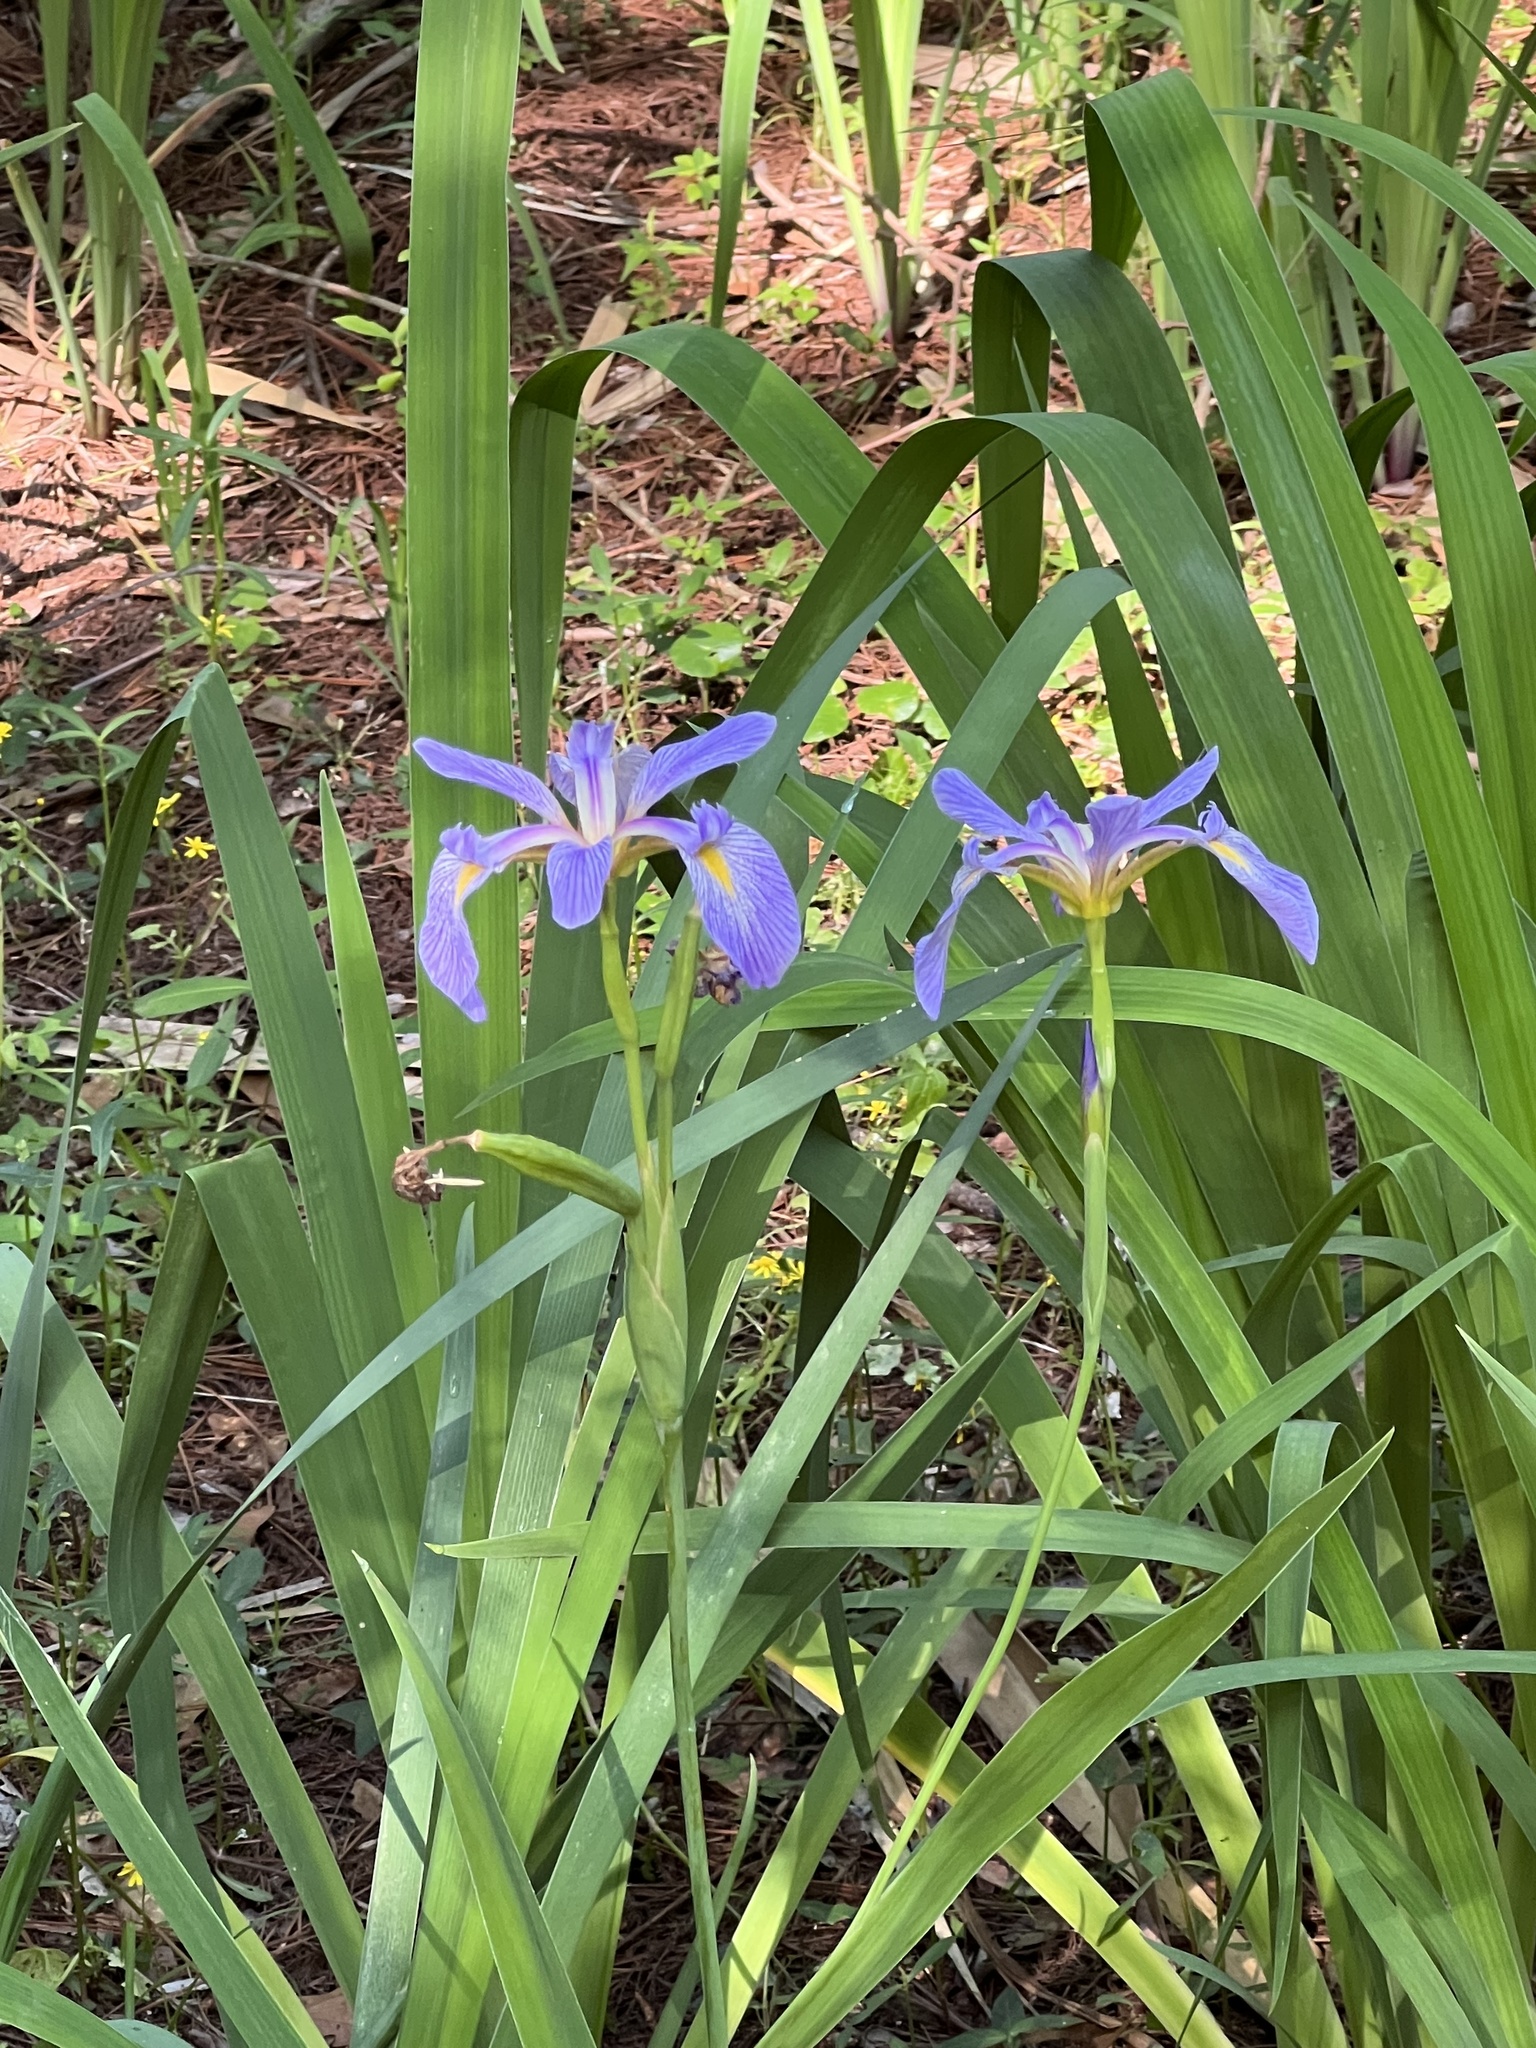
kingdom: Plantae
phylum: Tracheophyta
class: Liliopsida
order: Asparagales
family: Iridaceae
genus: Iris
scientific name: Iris virginica
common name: Southern blue flag
